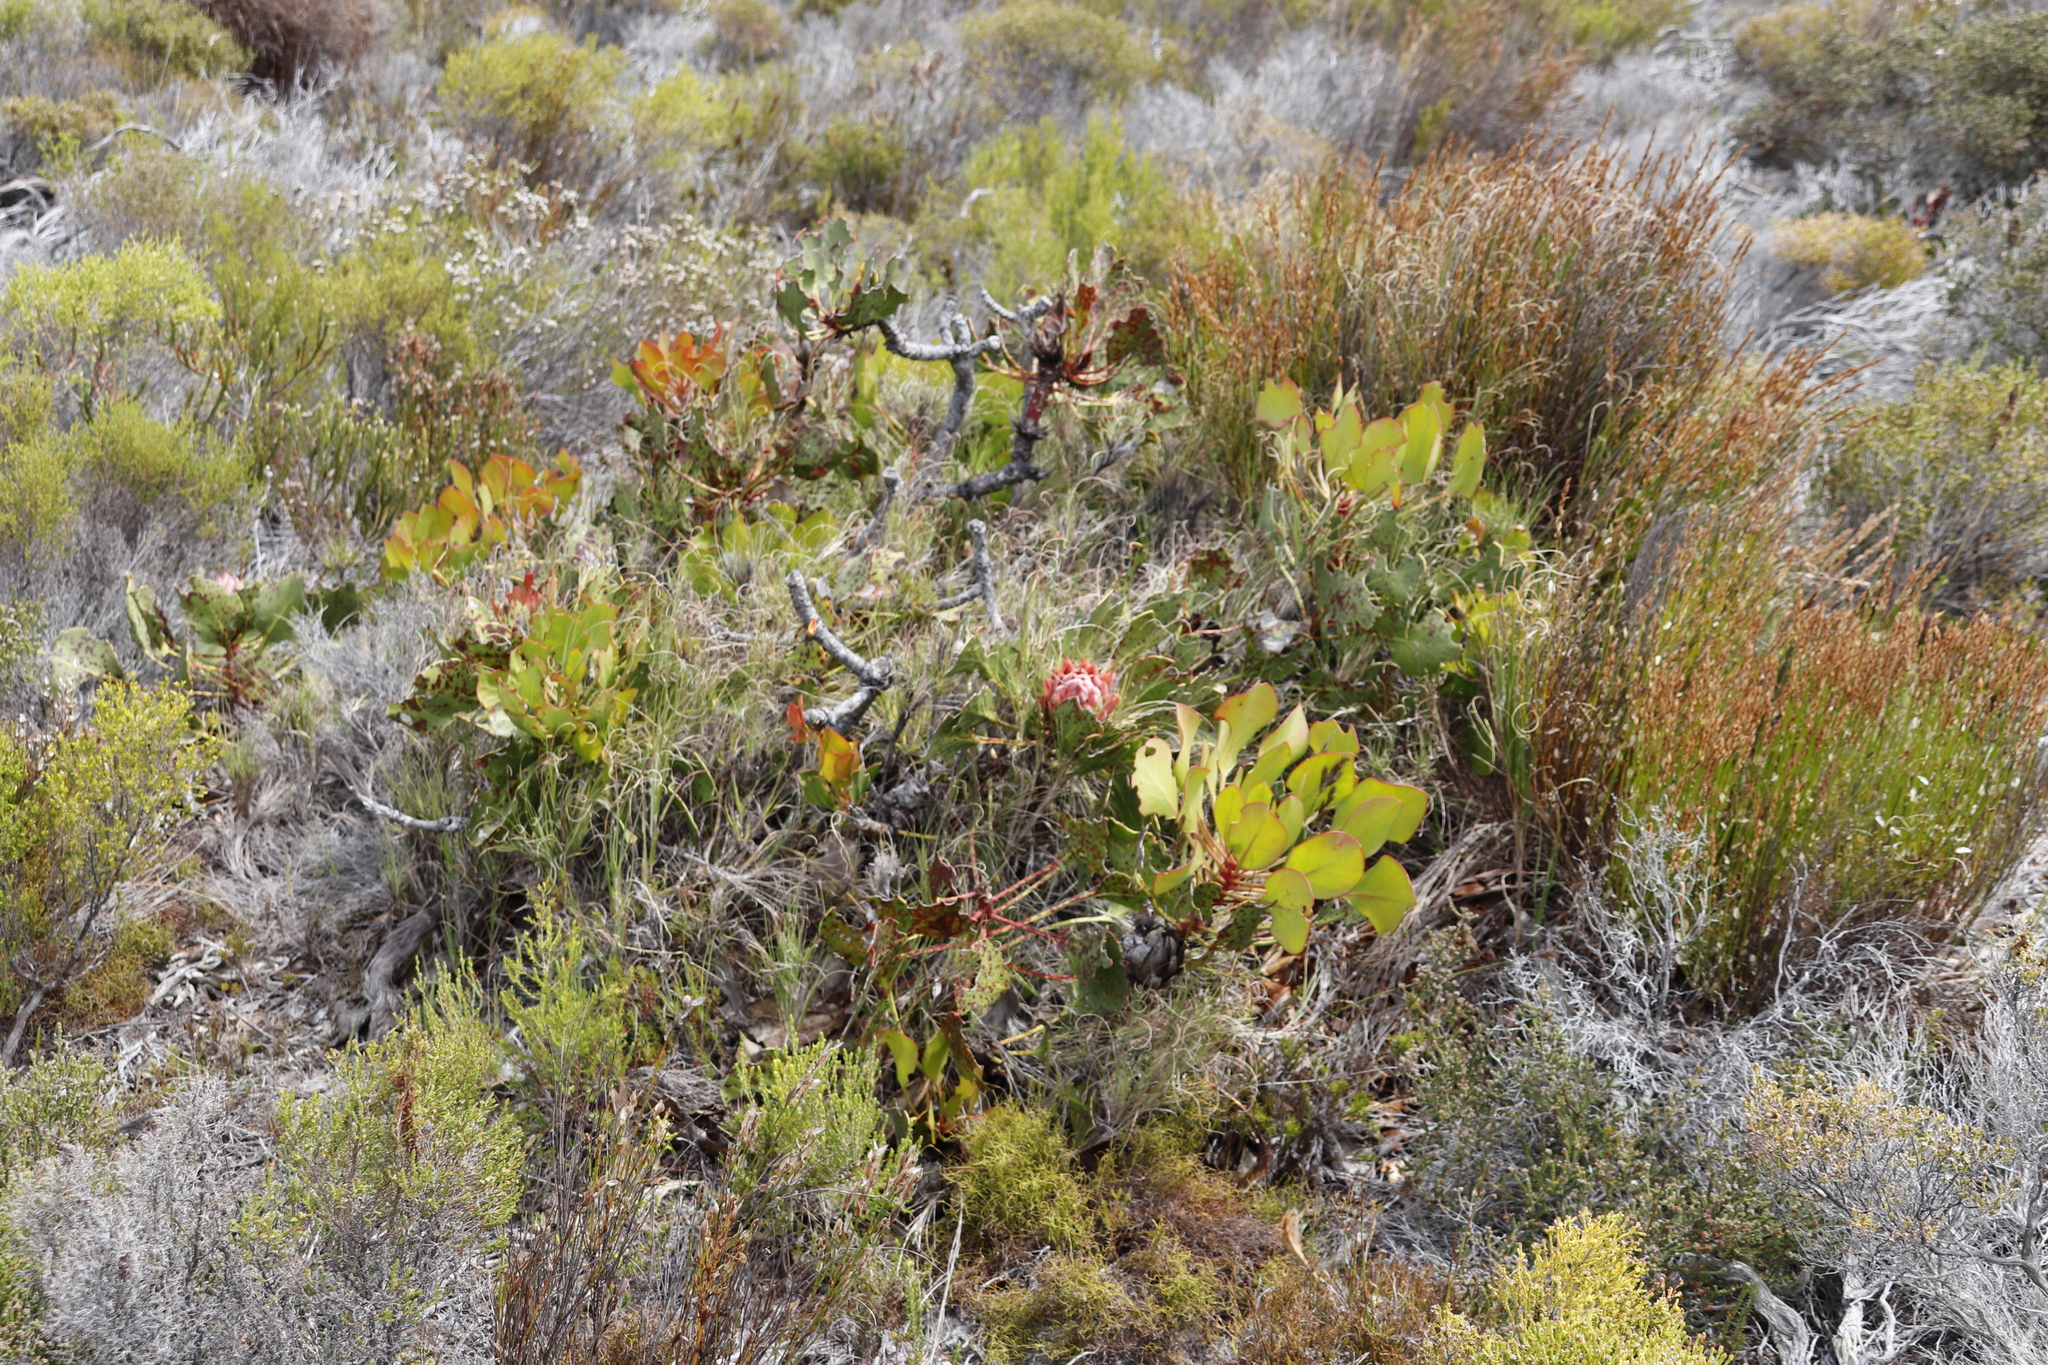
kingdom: Plantae
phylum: Tracheophyta
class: Magnoliopsida
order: Proteales
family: Proteaceae
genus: Protea
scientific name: Protea cynaroides
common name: King protea
